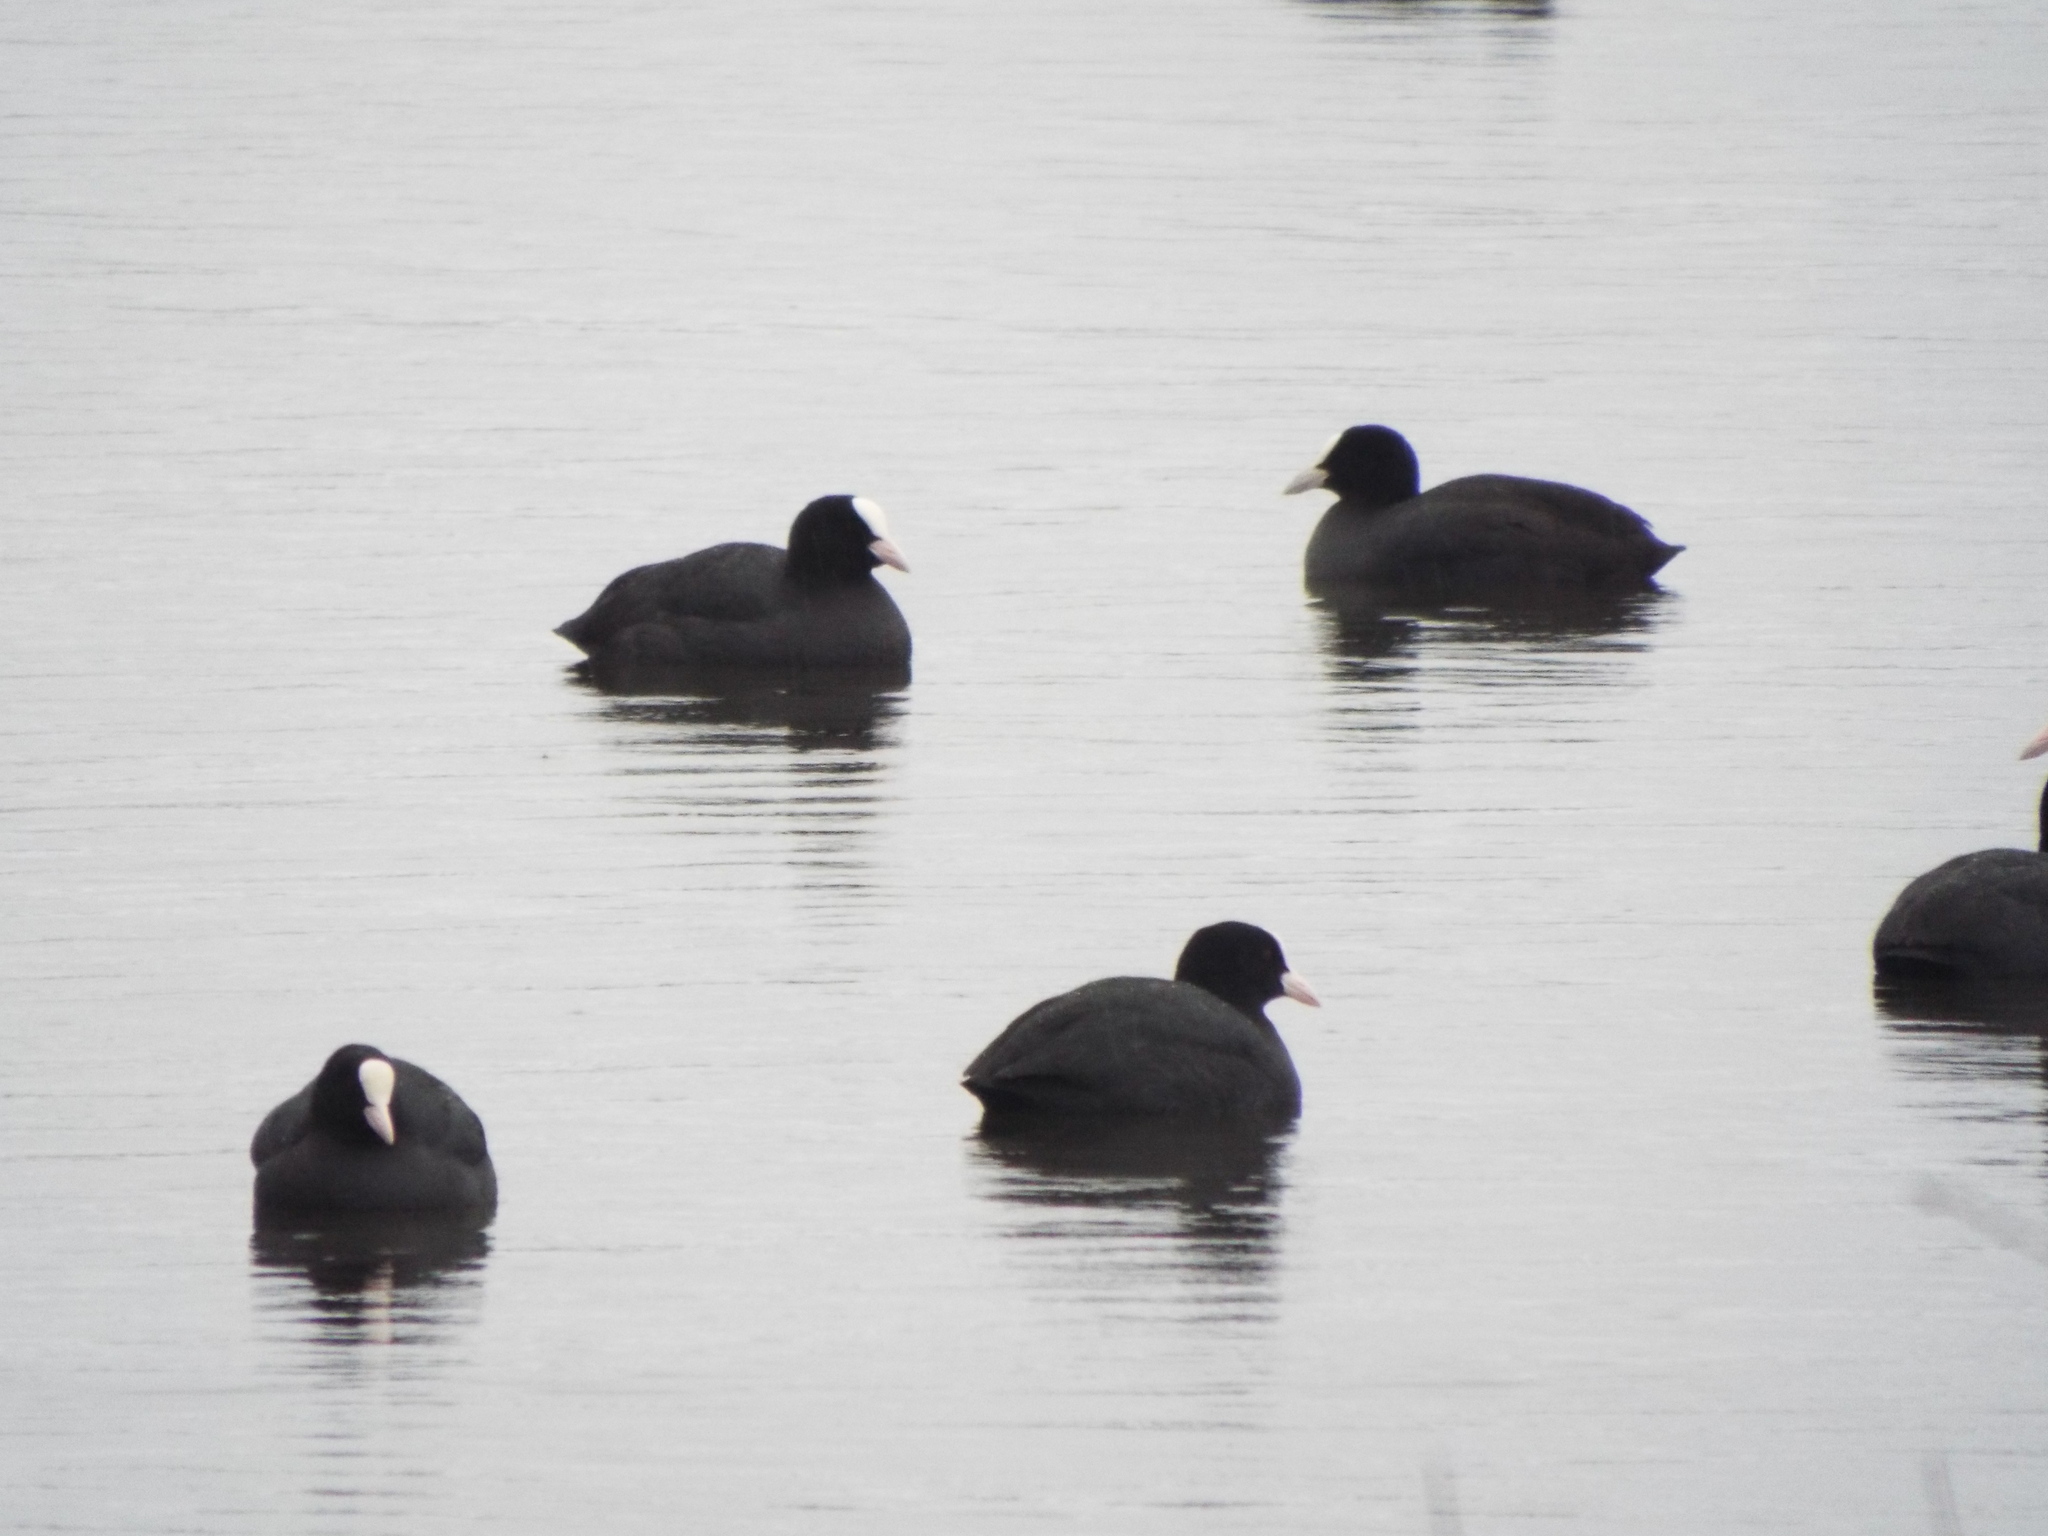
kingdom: Animalia
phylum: Chordata
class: Aves
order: Gruiformes
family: Rallidae
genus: Fulica
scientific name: Fulica atra
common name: Eurasian coot
